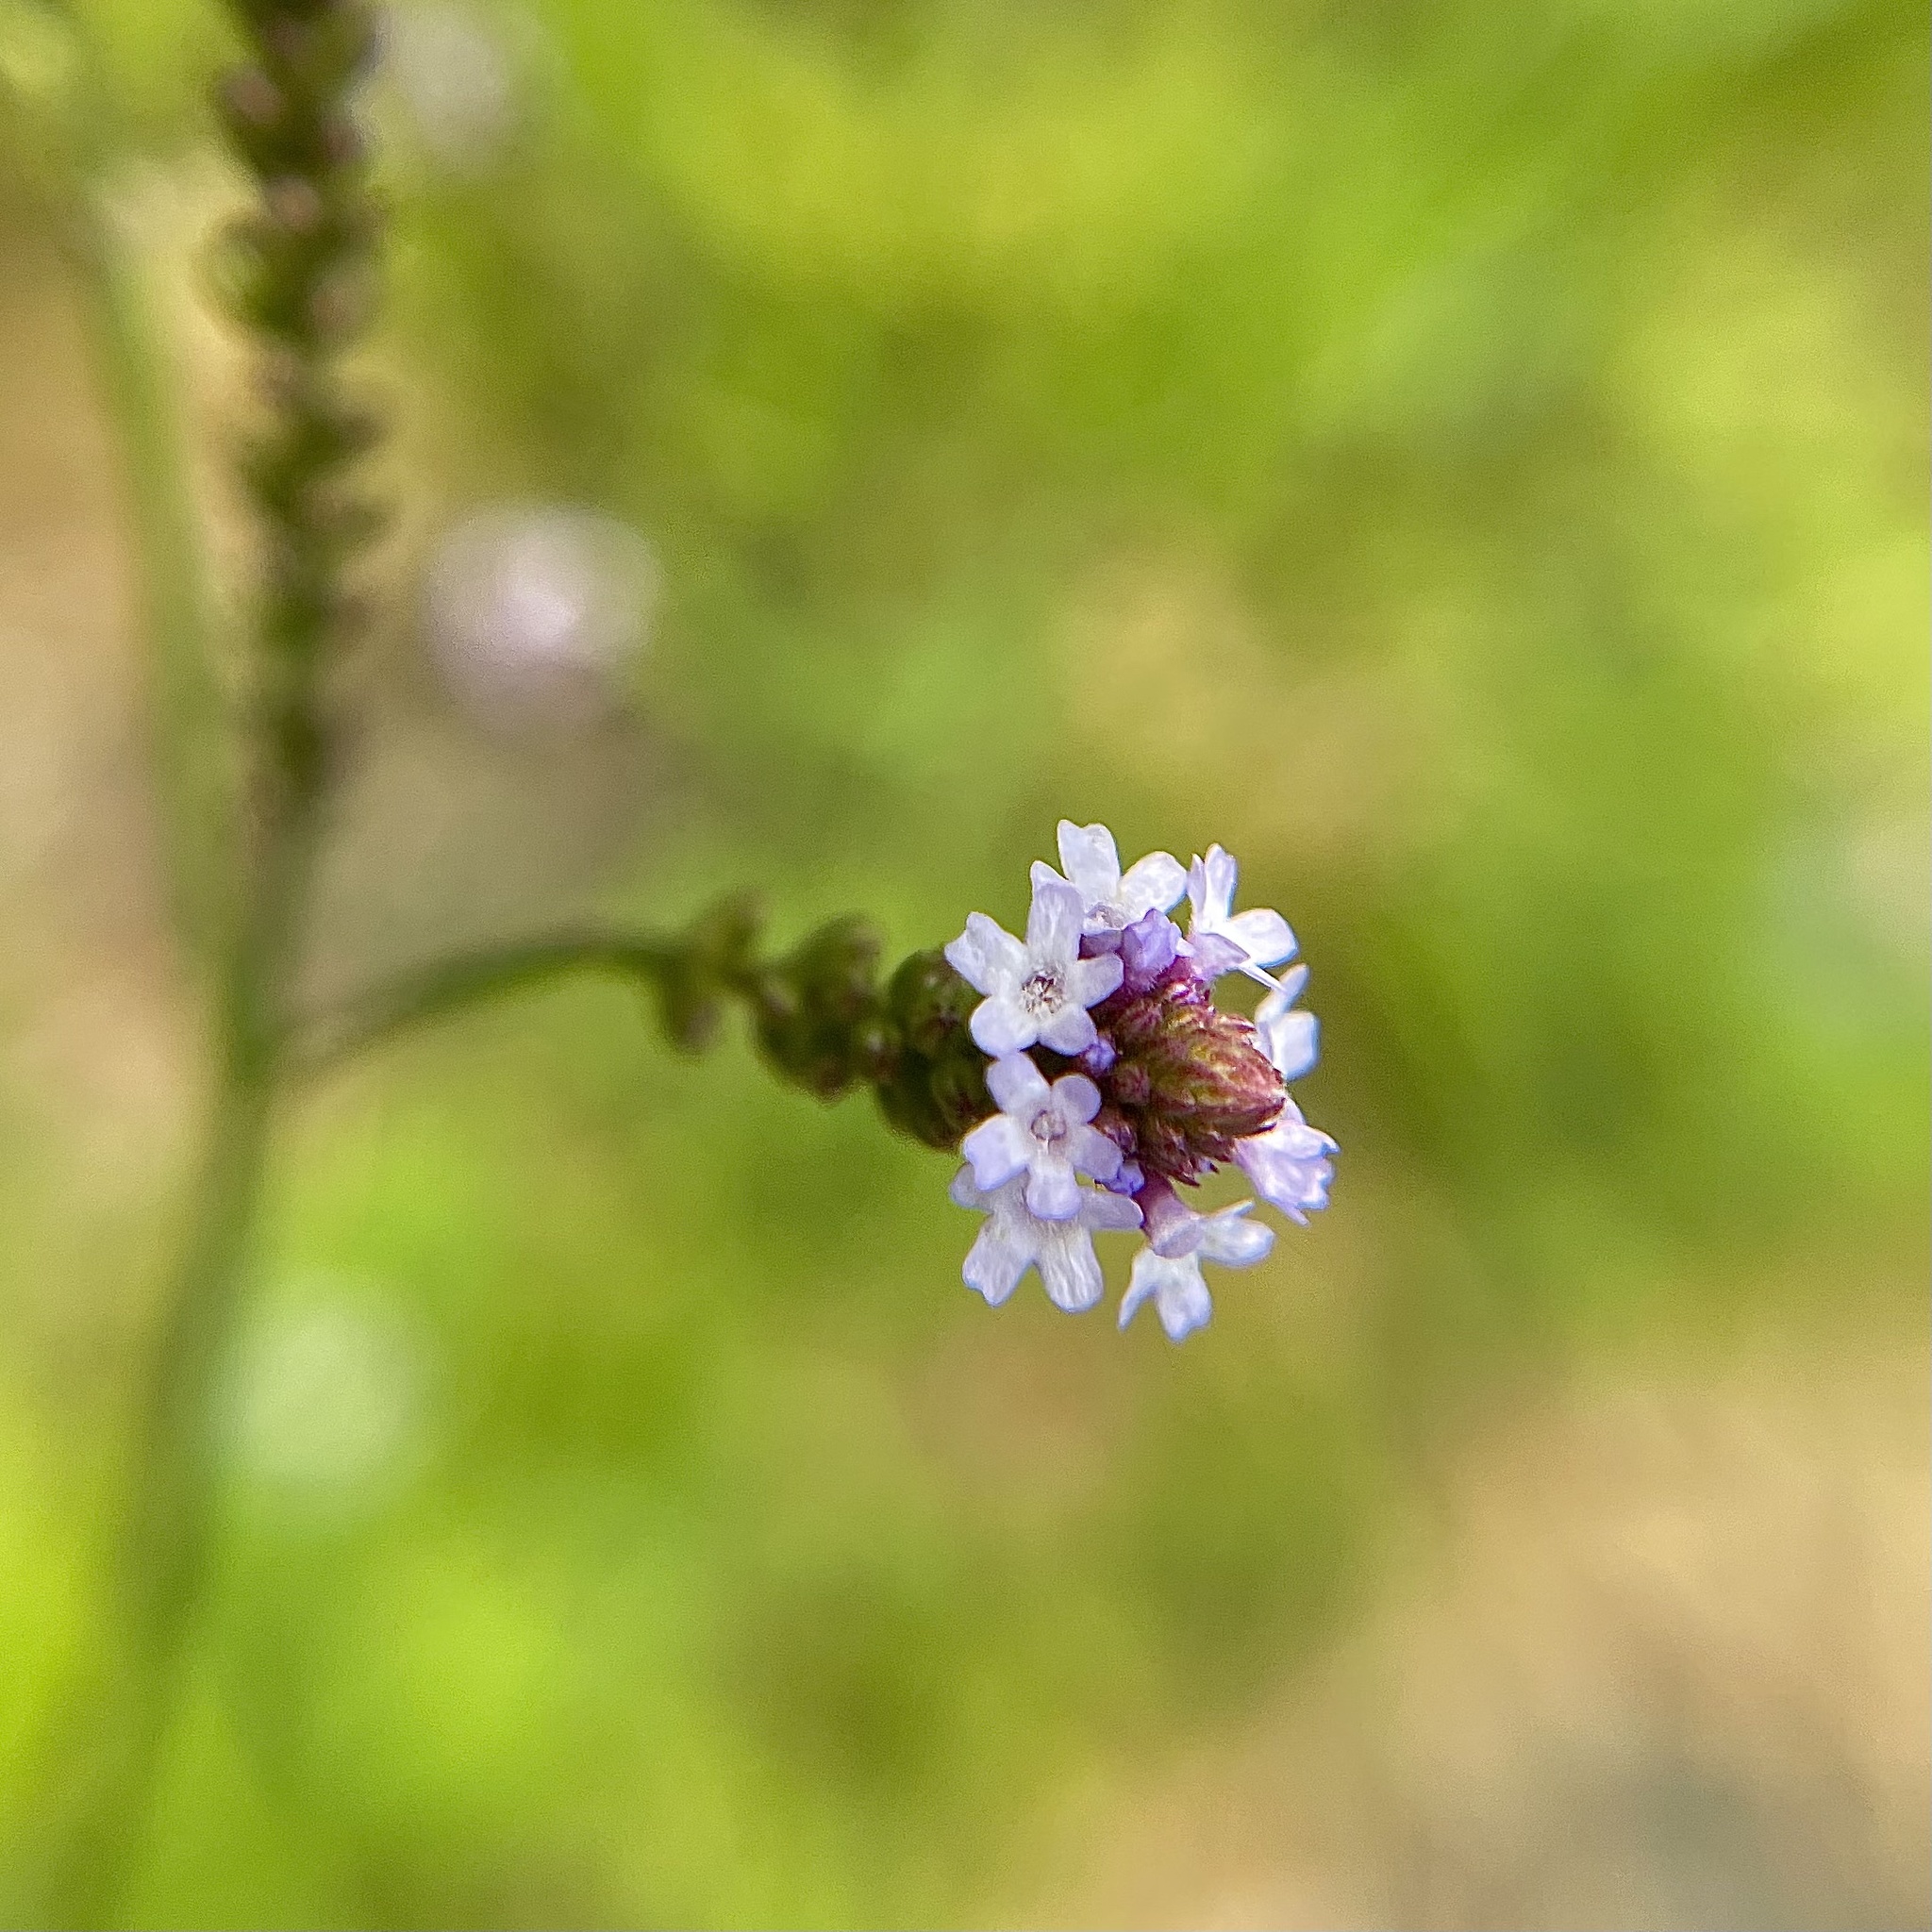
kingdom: Plantae
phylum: Tracheophyta
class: Magnoliopsida
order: Lamiales
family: Verbenaceae
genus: Verbena
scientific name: Verbena litoralis
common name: Seashore vervain
